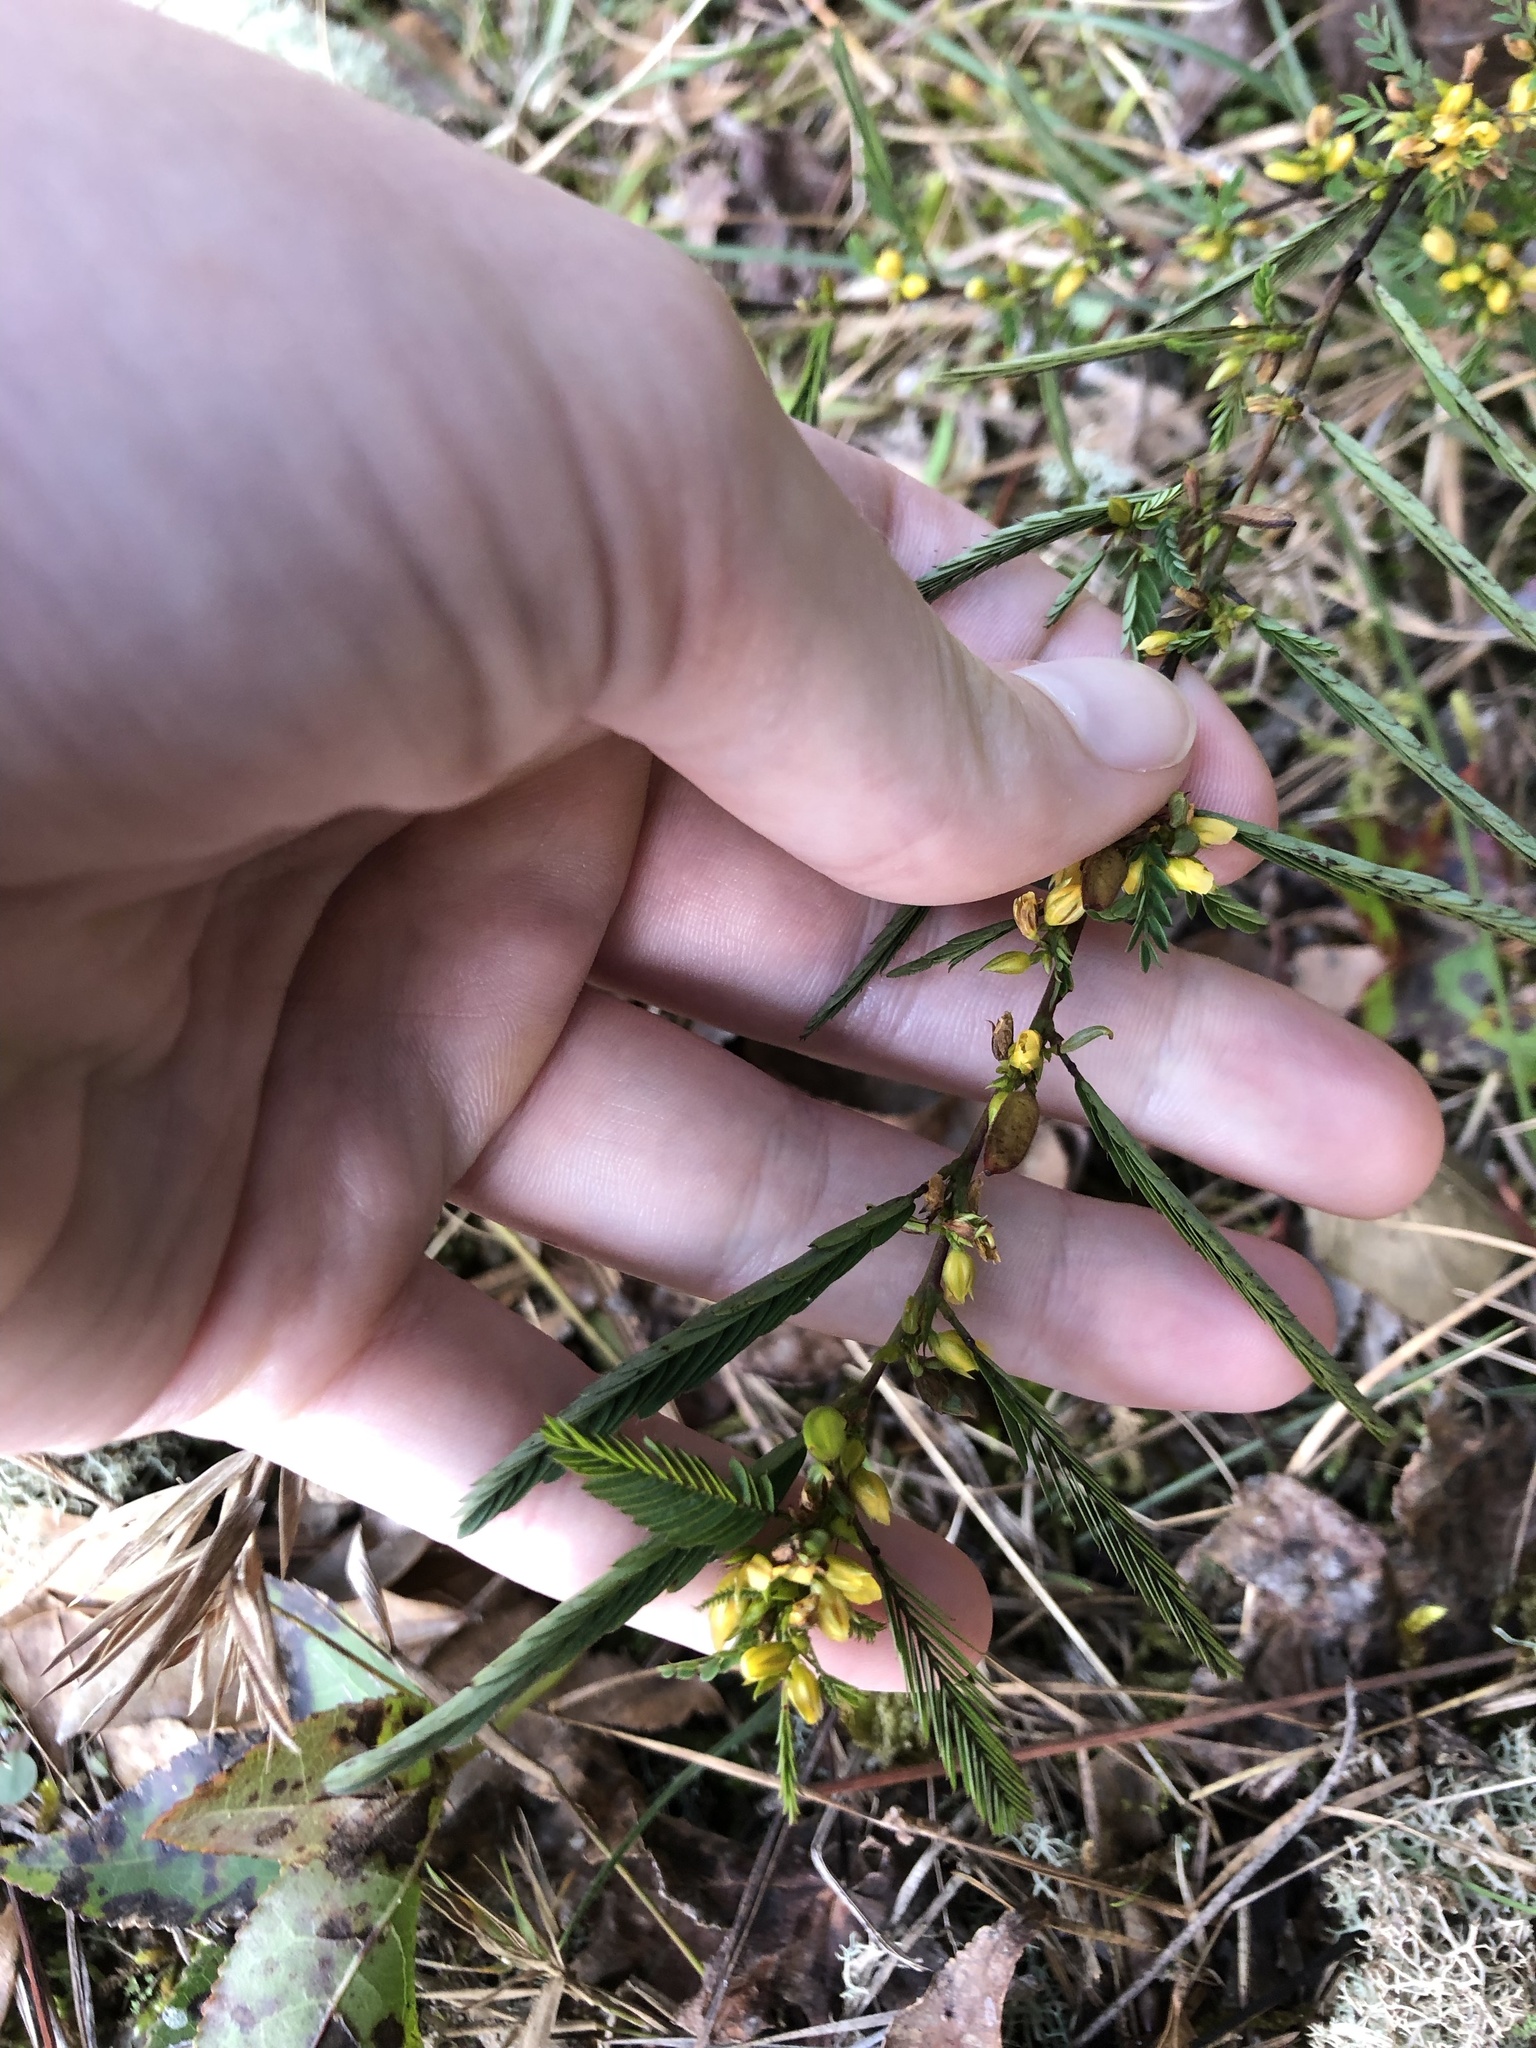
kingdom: Plantae
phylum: Tracheophyta
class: Magnoliopsida
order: Fabales
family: Fabaceae
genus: Chamaecrista
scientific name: Chamaecrista nictitans
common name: Sensitive cassia
